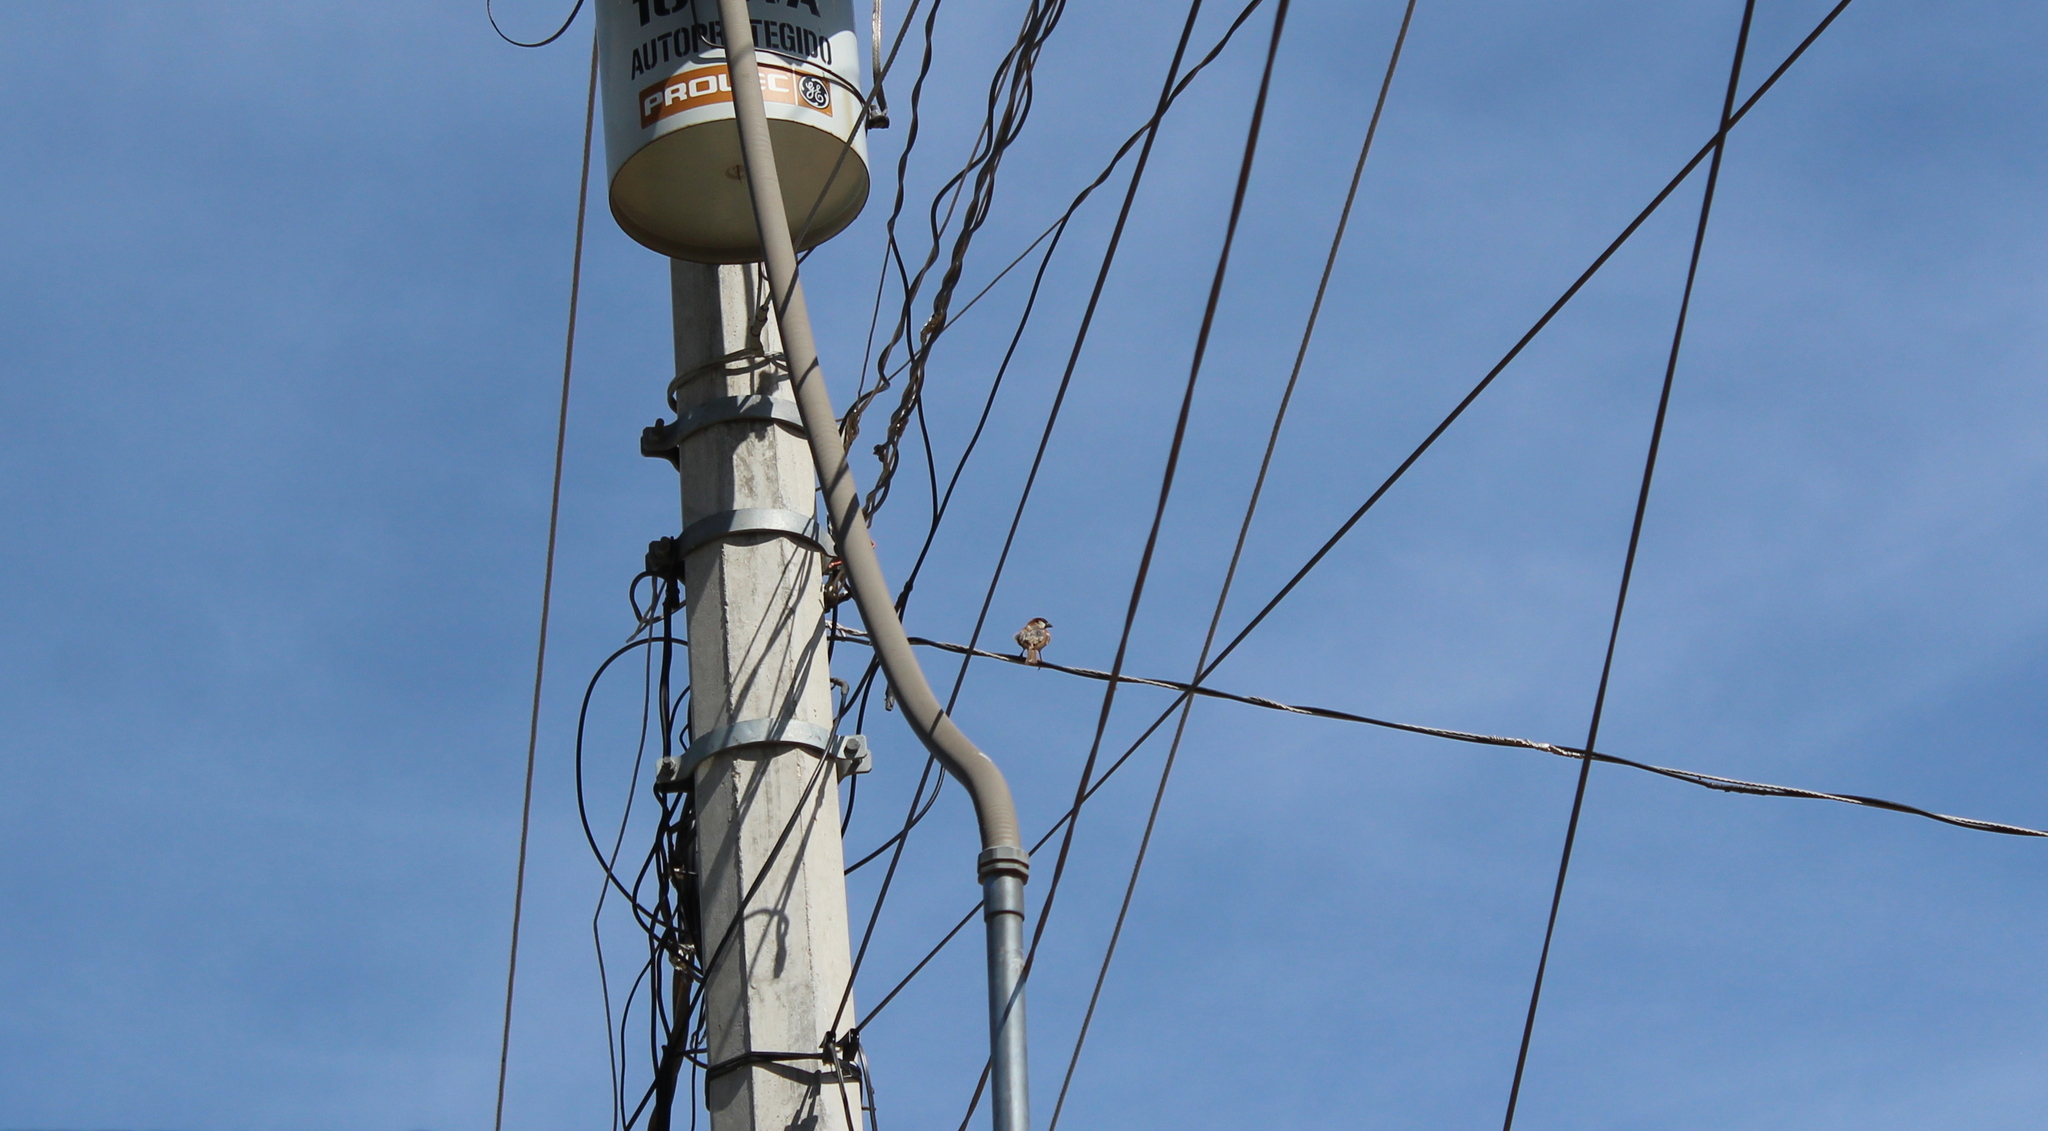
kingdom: Animalia
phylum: Chordata
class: Aves
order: Passeriformes
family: Passeridae
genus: Passer
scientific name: Passer domesticus
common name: House sparrow
